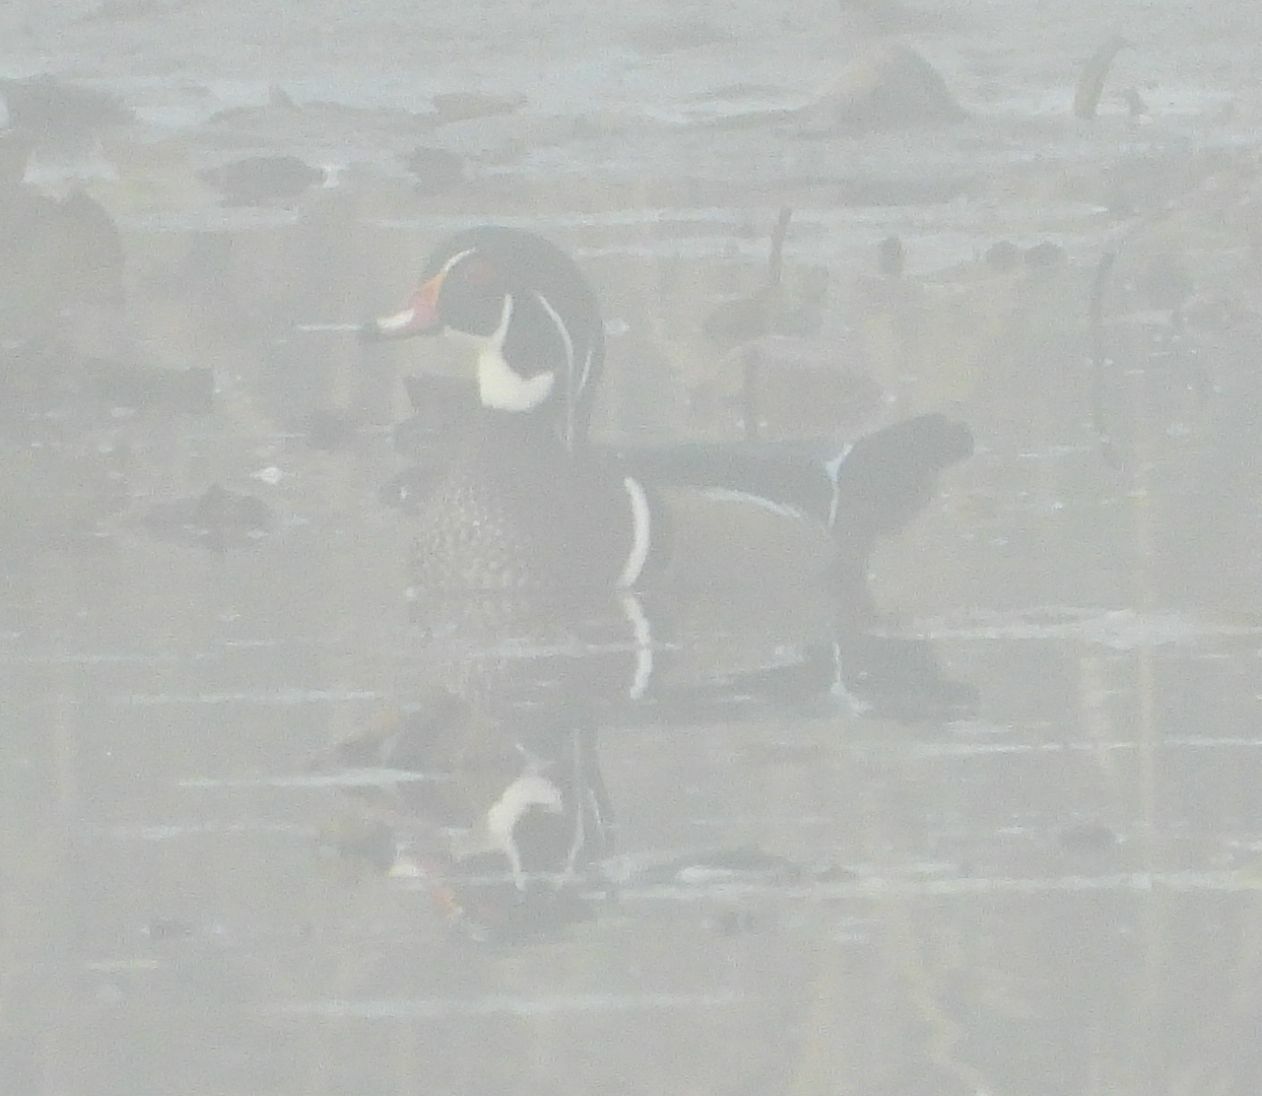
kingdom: Animalia
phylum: Chordata
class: Aves
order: Anseriformes
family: Anatidae
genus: Aix
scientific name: Aix sponsa
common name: Wood duck
